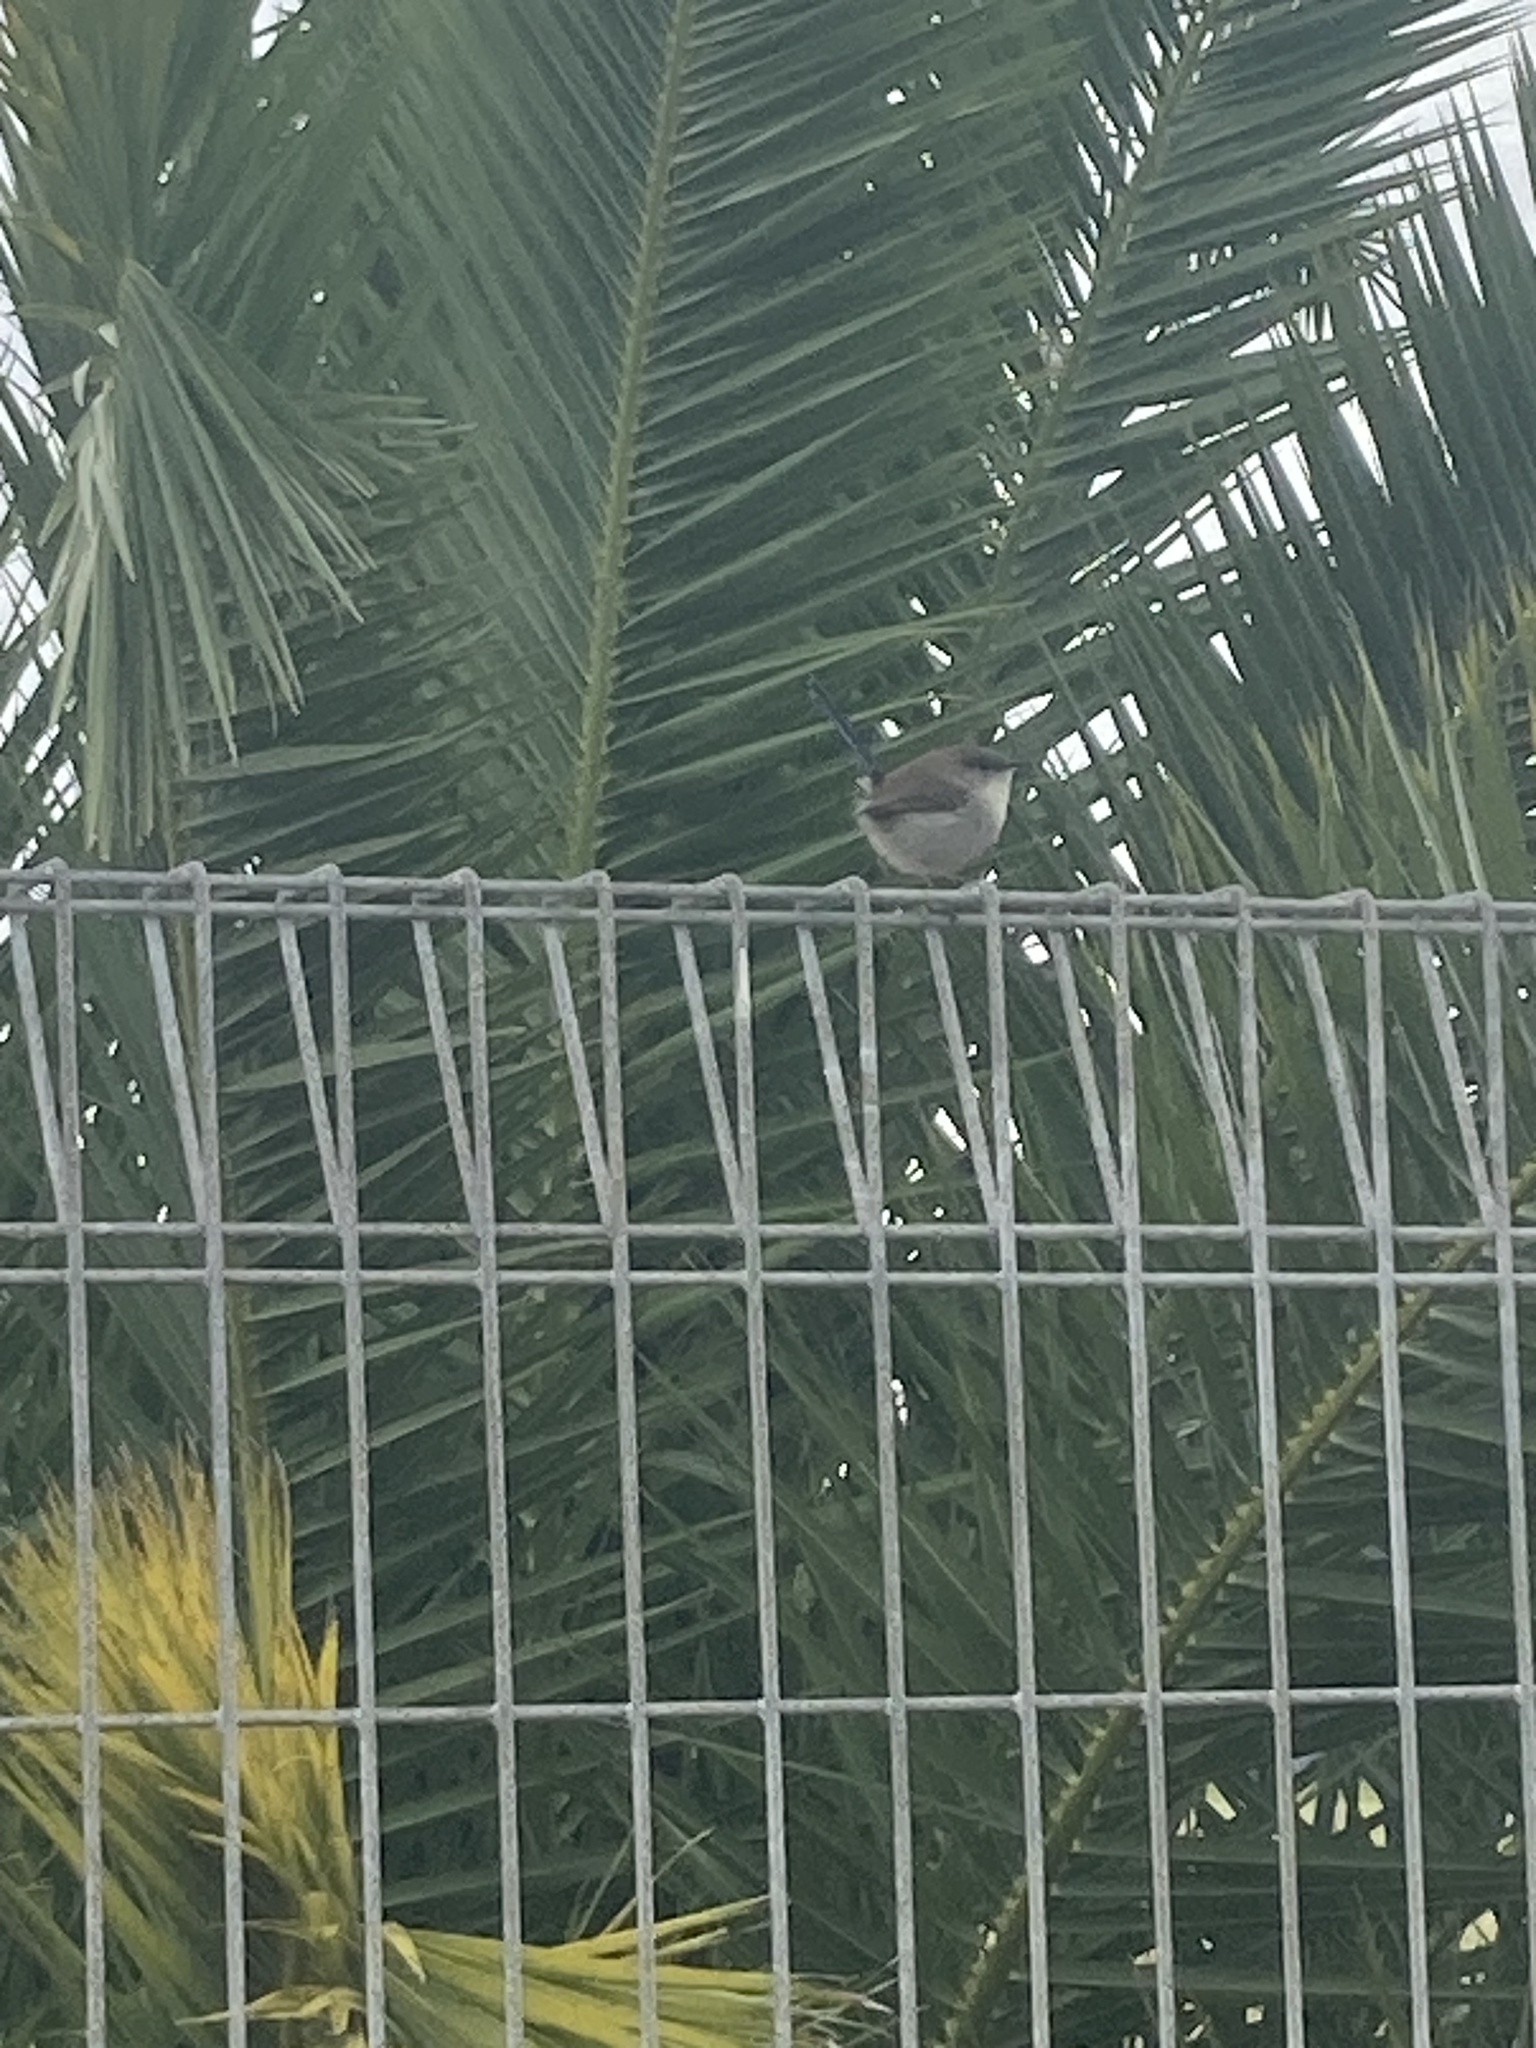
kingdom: Animalia
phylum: Chordata
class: Aves
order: Passeriformes
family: Maluridae
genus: Malurus
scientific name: Malurus cyaneus
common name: Superb fairywren
